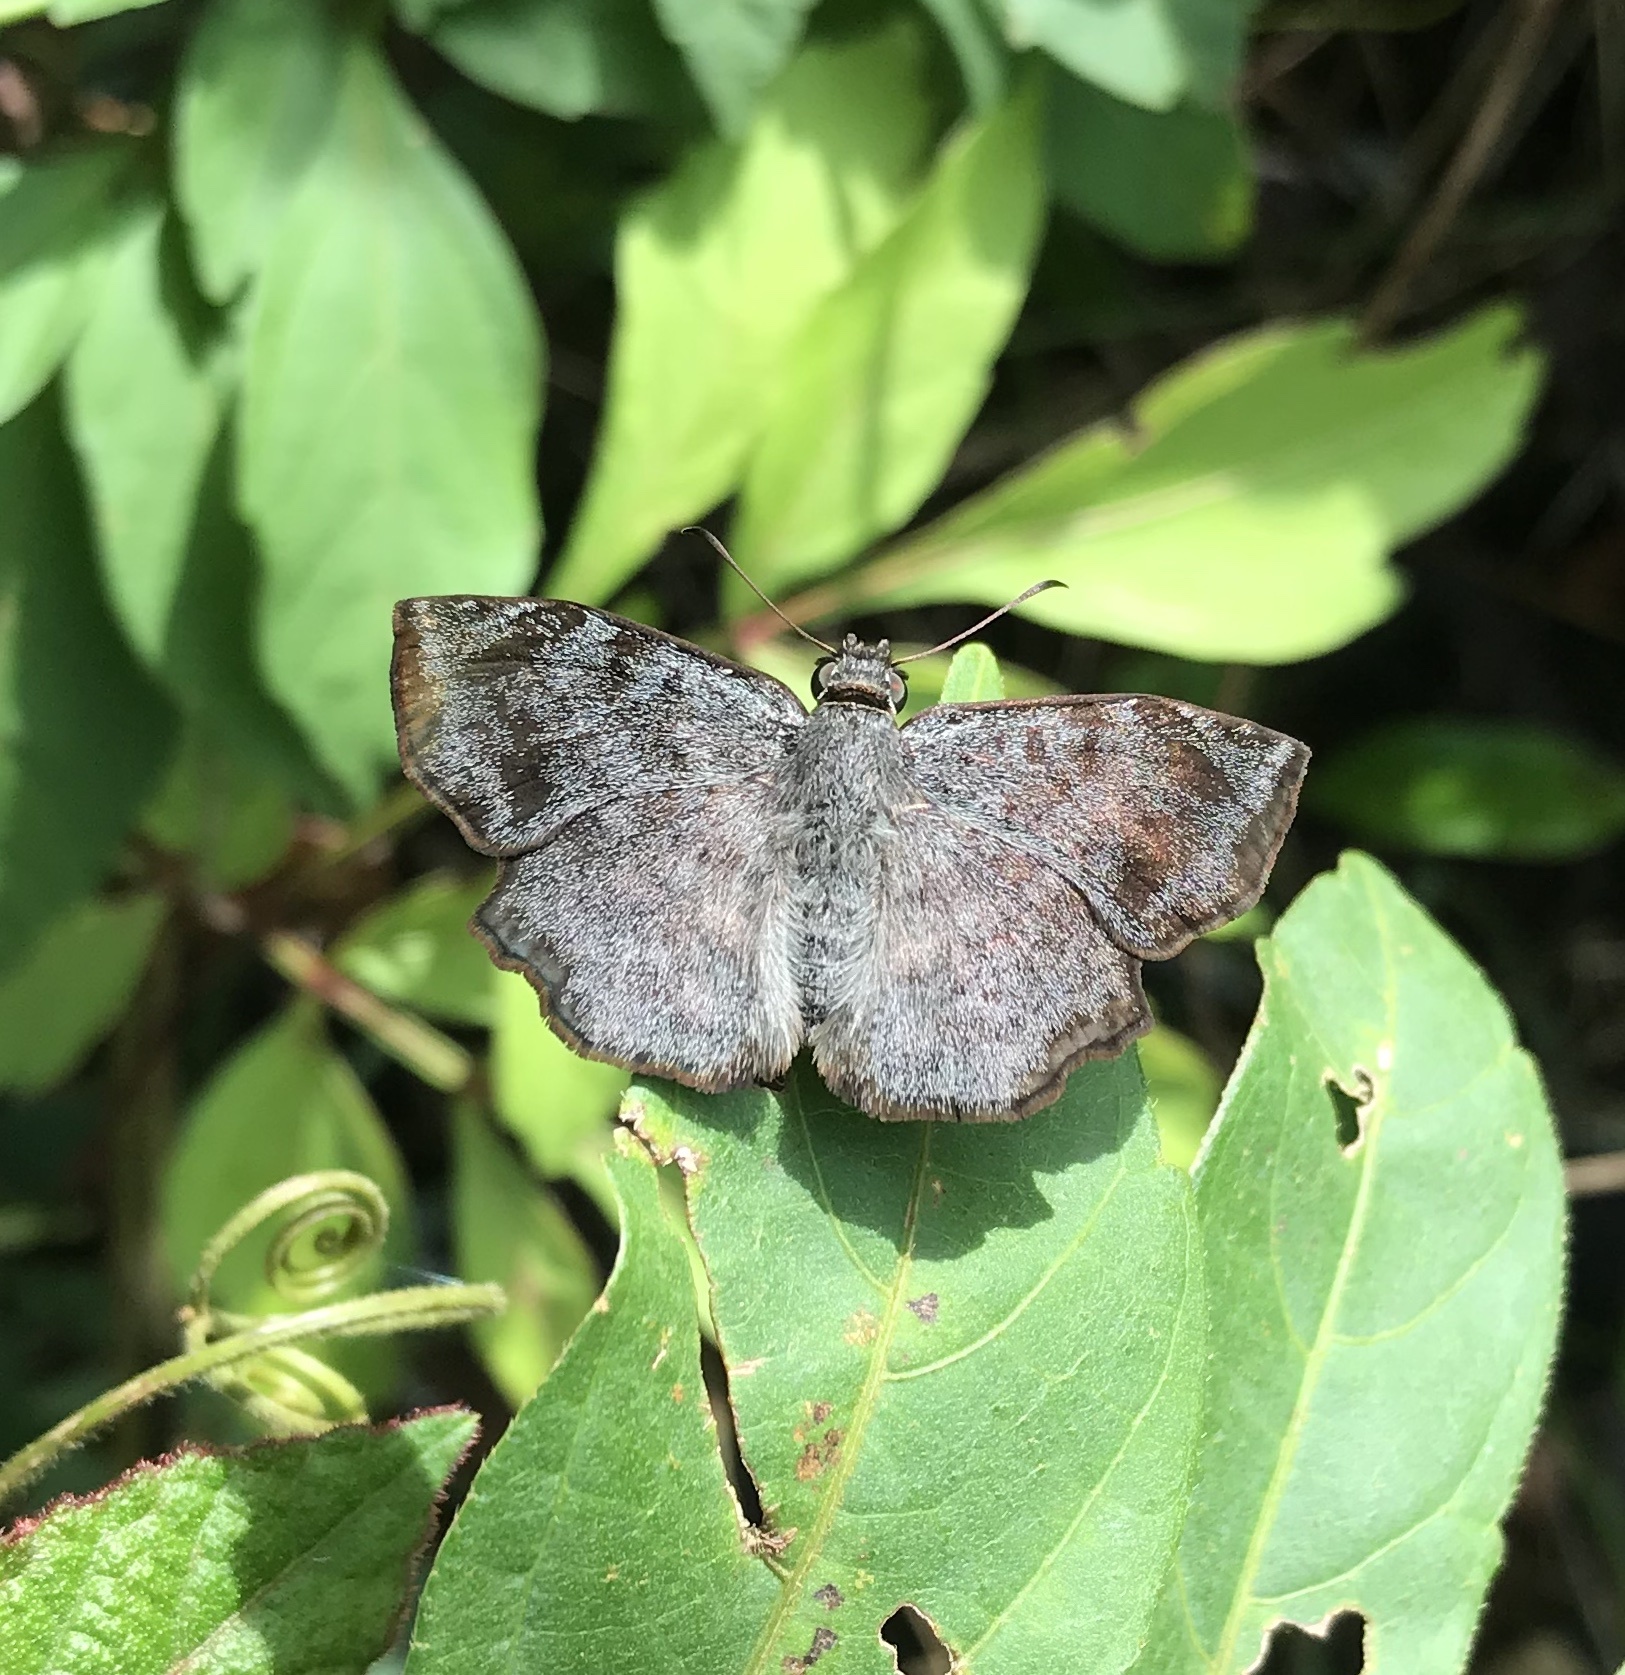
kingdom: Animalia
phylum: Arthropoda
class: Insecta
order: Lepidoptera
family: Hesperiidae
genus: Antigonus
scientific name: Antigonus erosus
